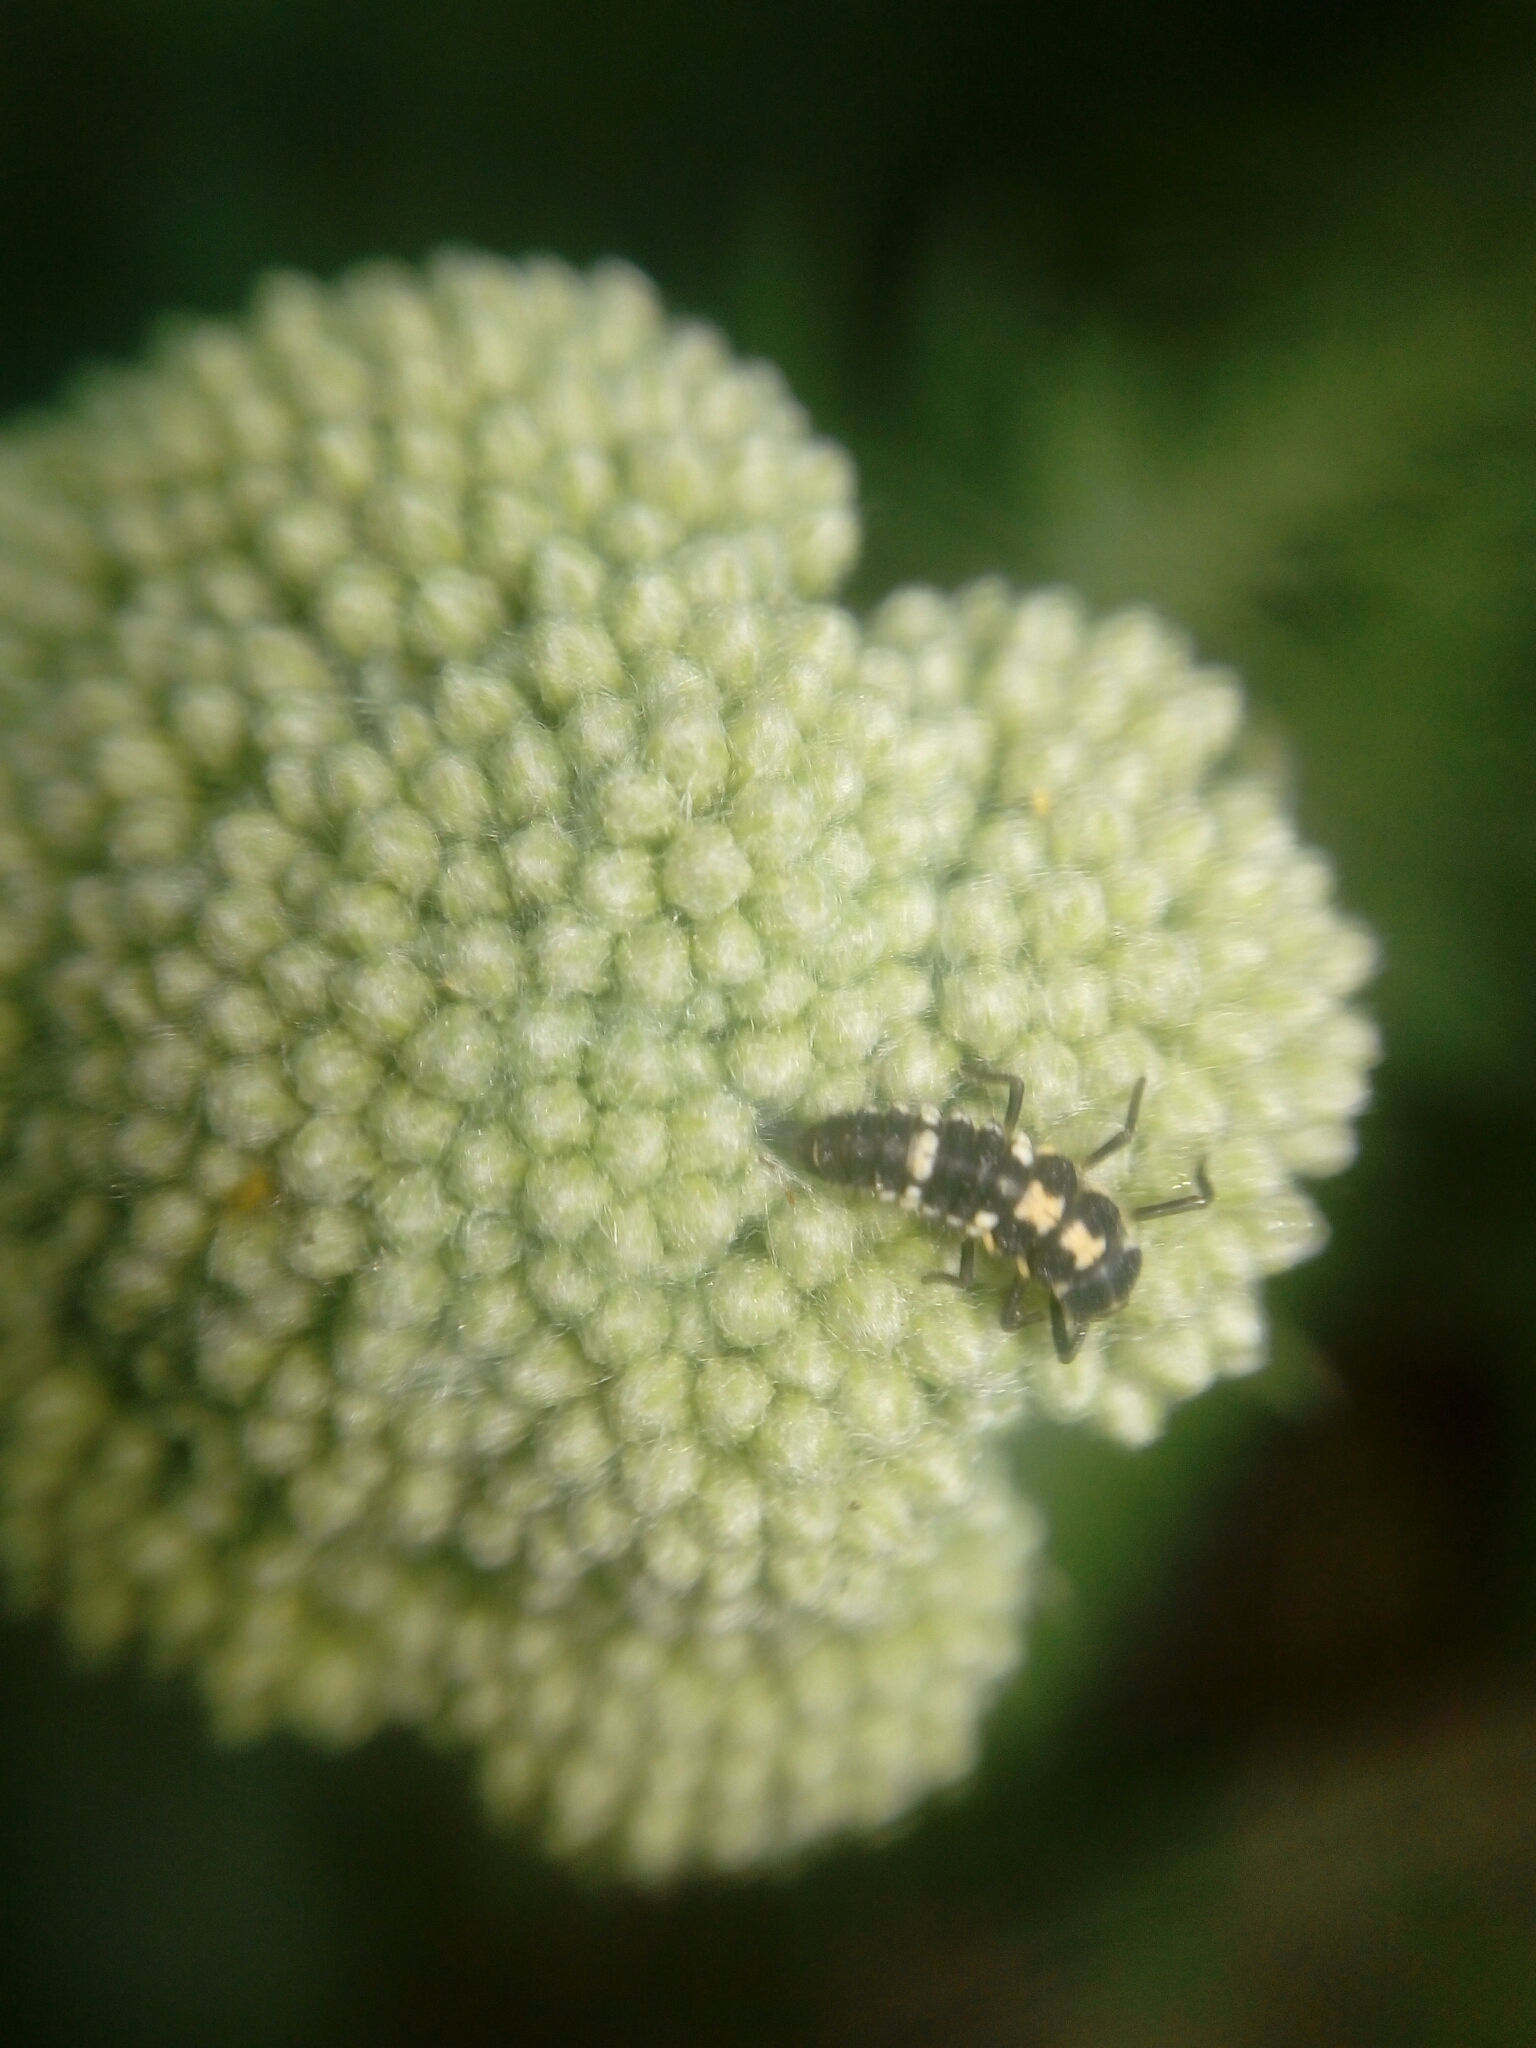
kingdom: Animalia
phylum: Arthropoda
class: Insecta
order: Coleoptera
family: Coccinellidae
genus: Propylaea
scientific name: Propylaea quatuordecimpunctata
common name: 14-spotted ladybird beetle
